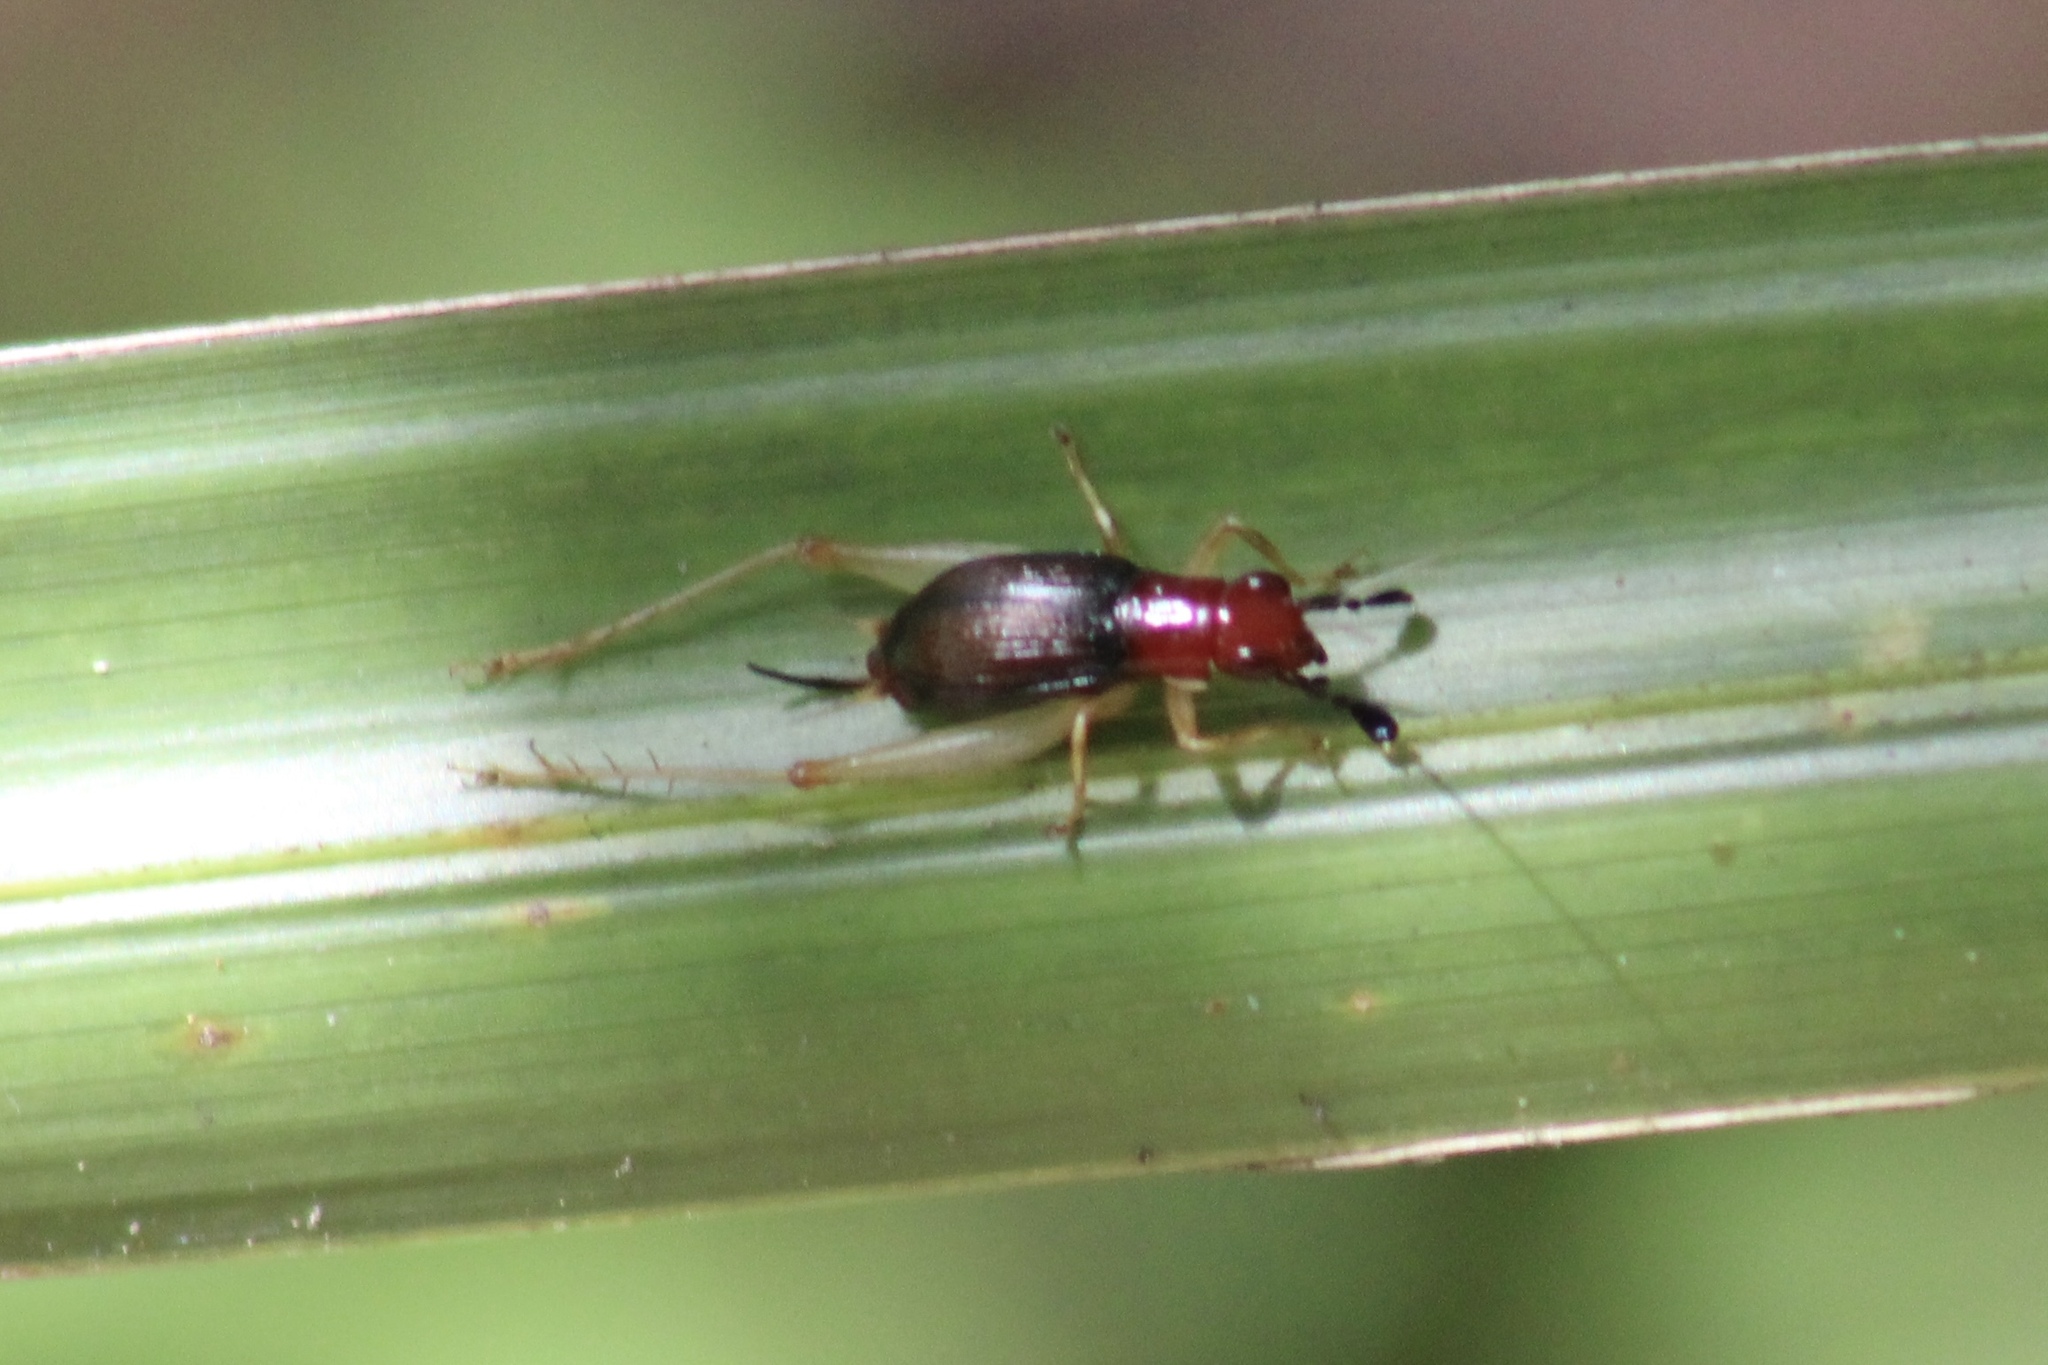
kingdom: Animalia
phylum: Arthropoda
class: Insecta
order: Orthoptera
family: Trigonidiidae
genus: Phyllopalpus
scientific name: Phyllopalpus pulchellus
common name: Handsome trig
